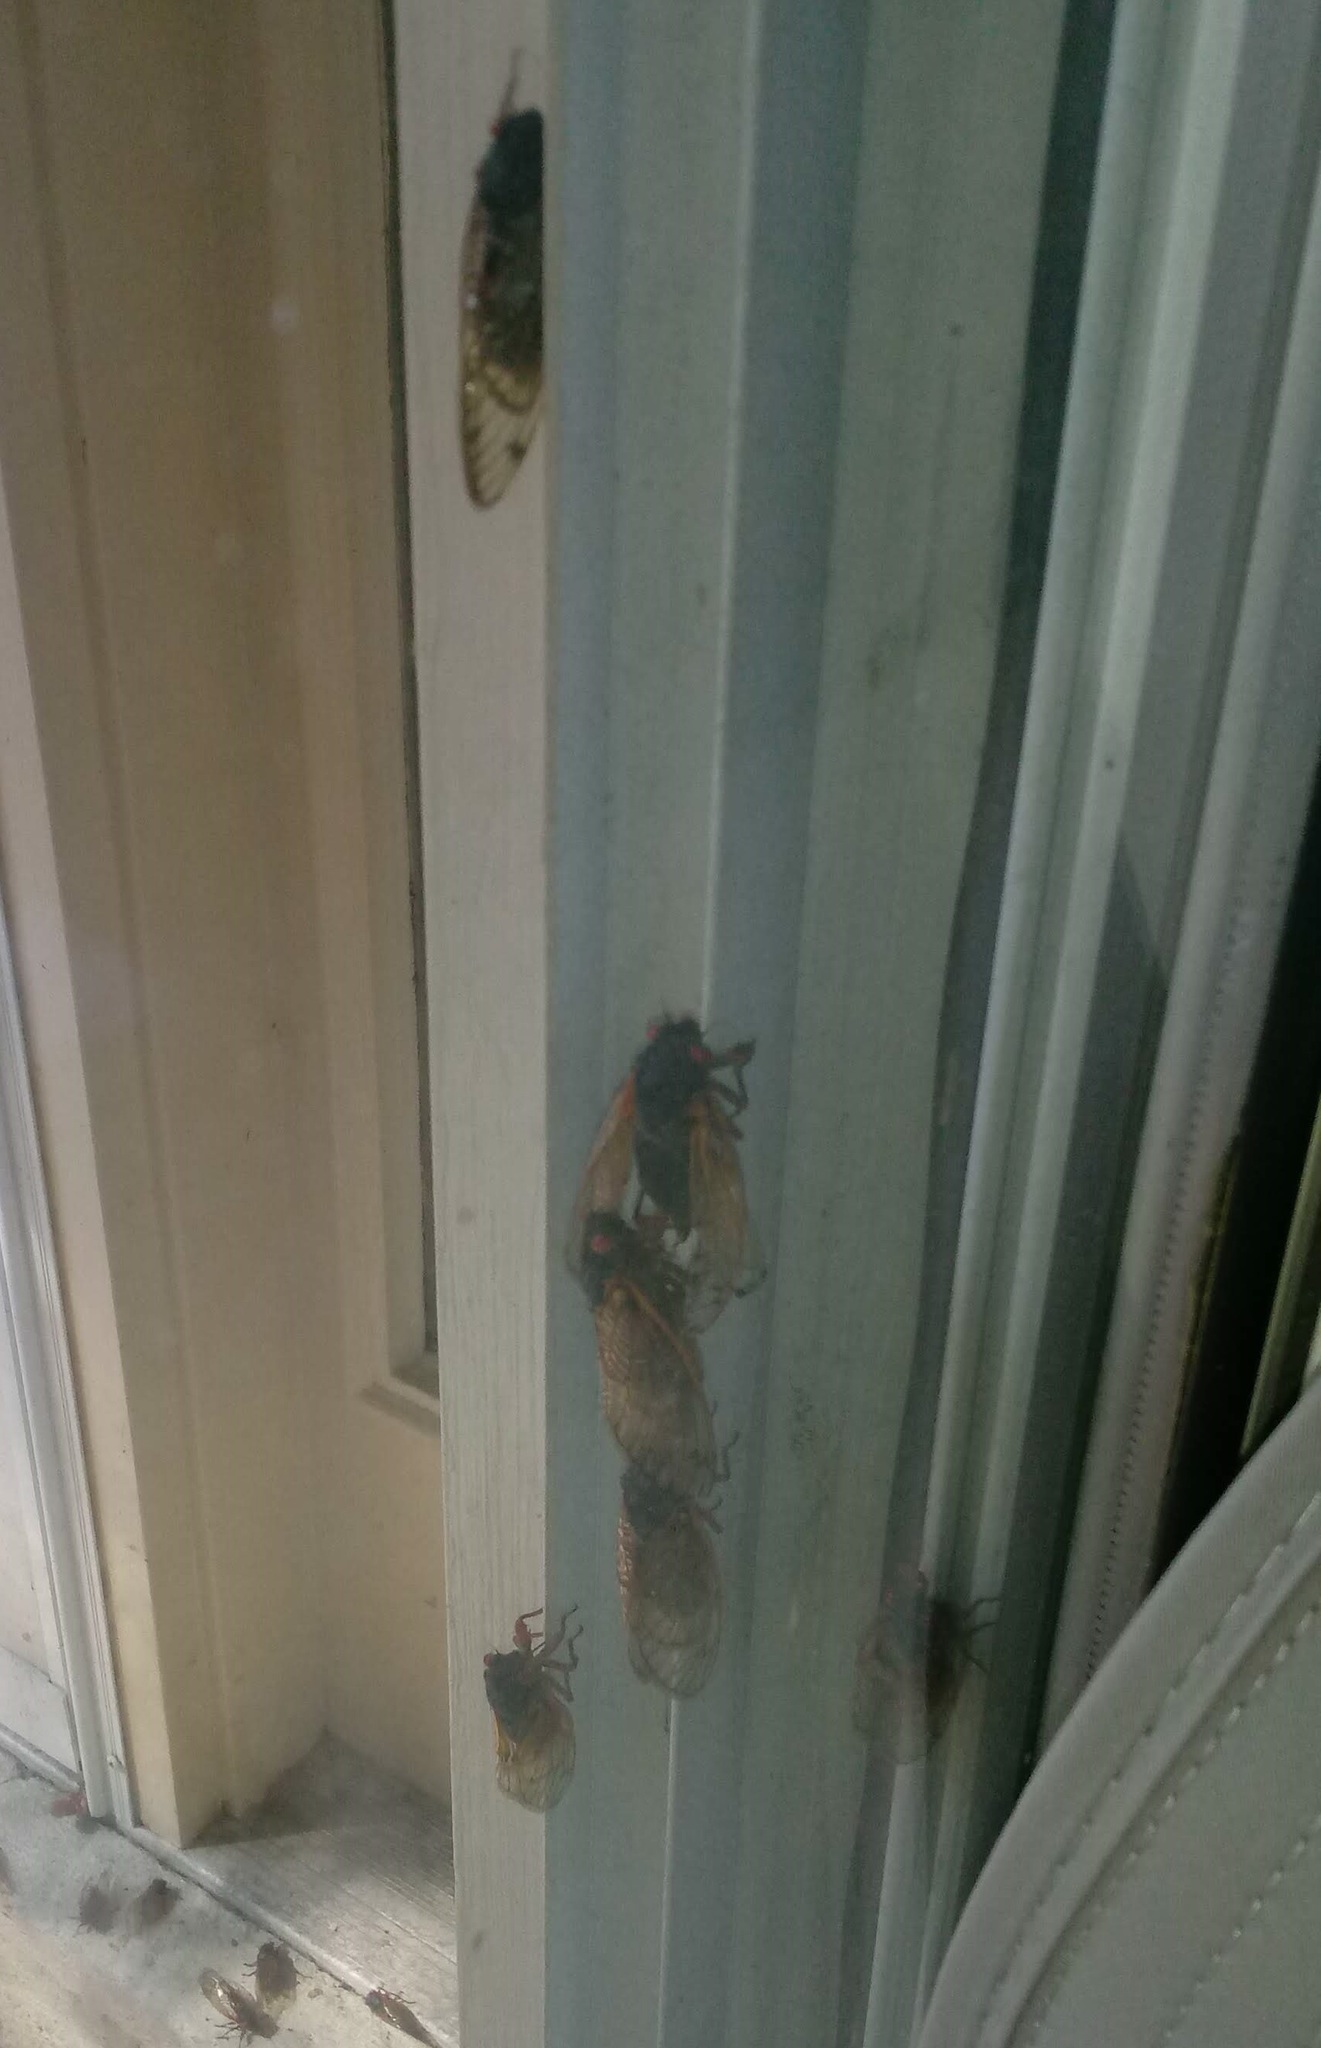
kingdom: Animalia
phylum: Arthropoda
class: Insecta
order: Hemiptera
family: Cicadidae
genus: Magicicada
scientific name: Magicicada
